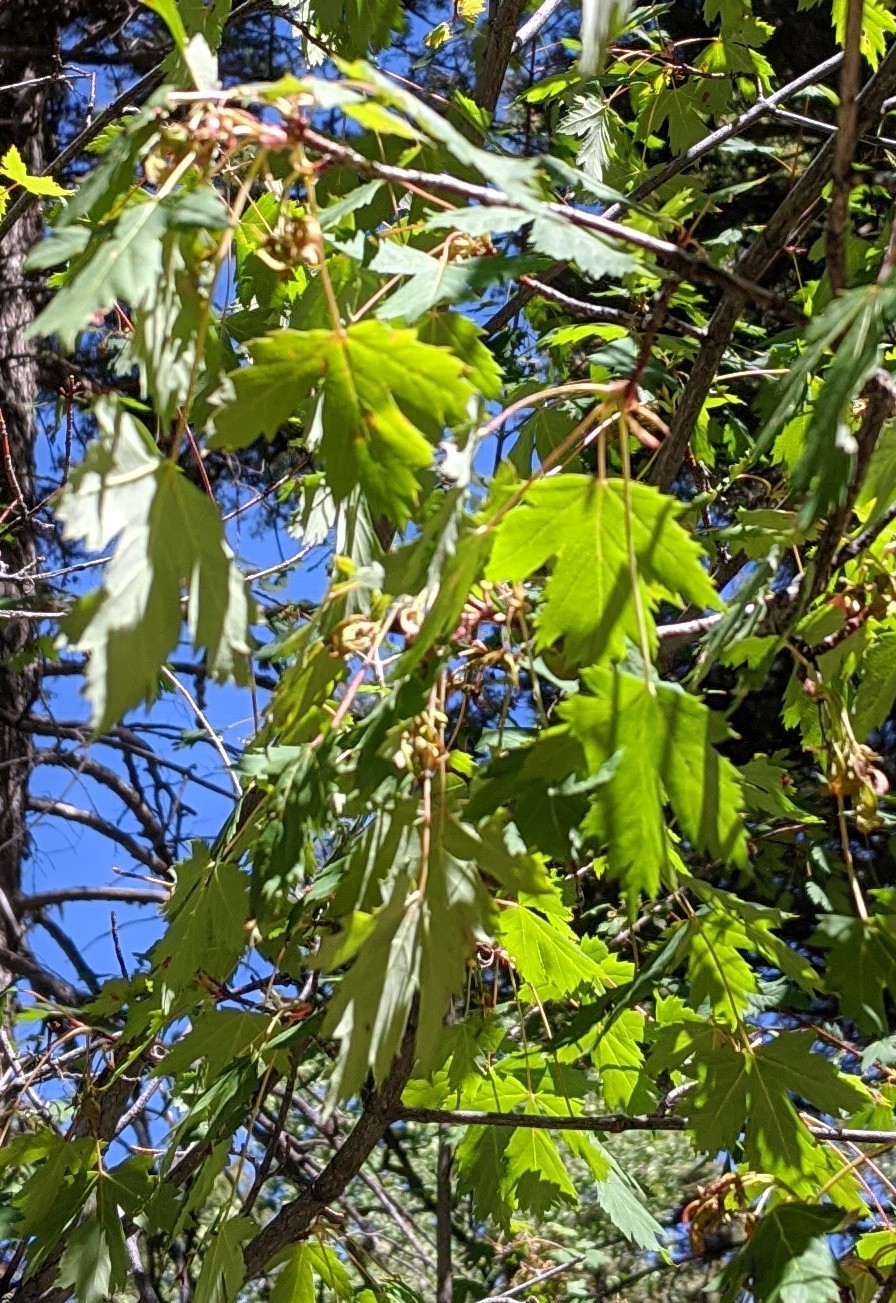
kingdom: Plantae
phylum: Tracheophyta
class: Magnoliopsida
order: Sapindales
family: Sapindaceae
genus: Acer
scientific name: Acer glabrum
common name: Rocky mountain maple
